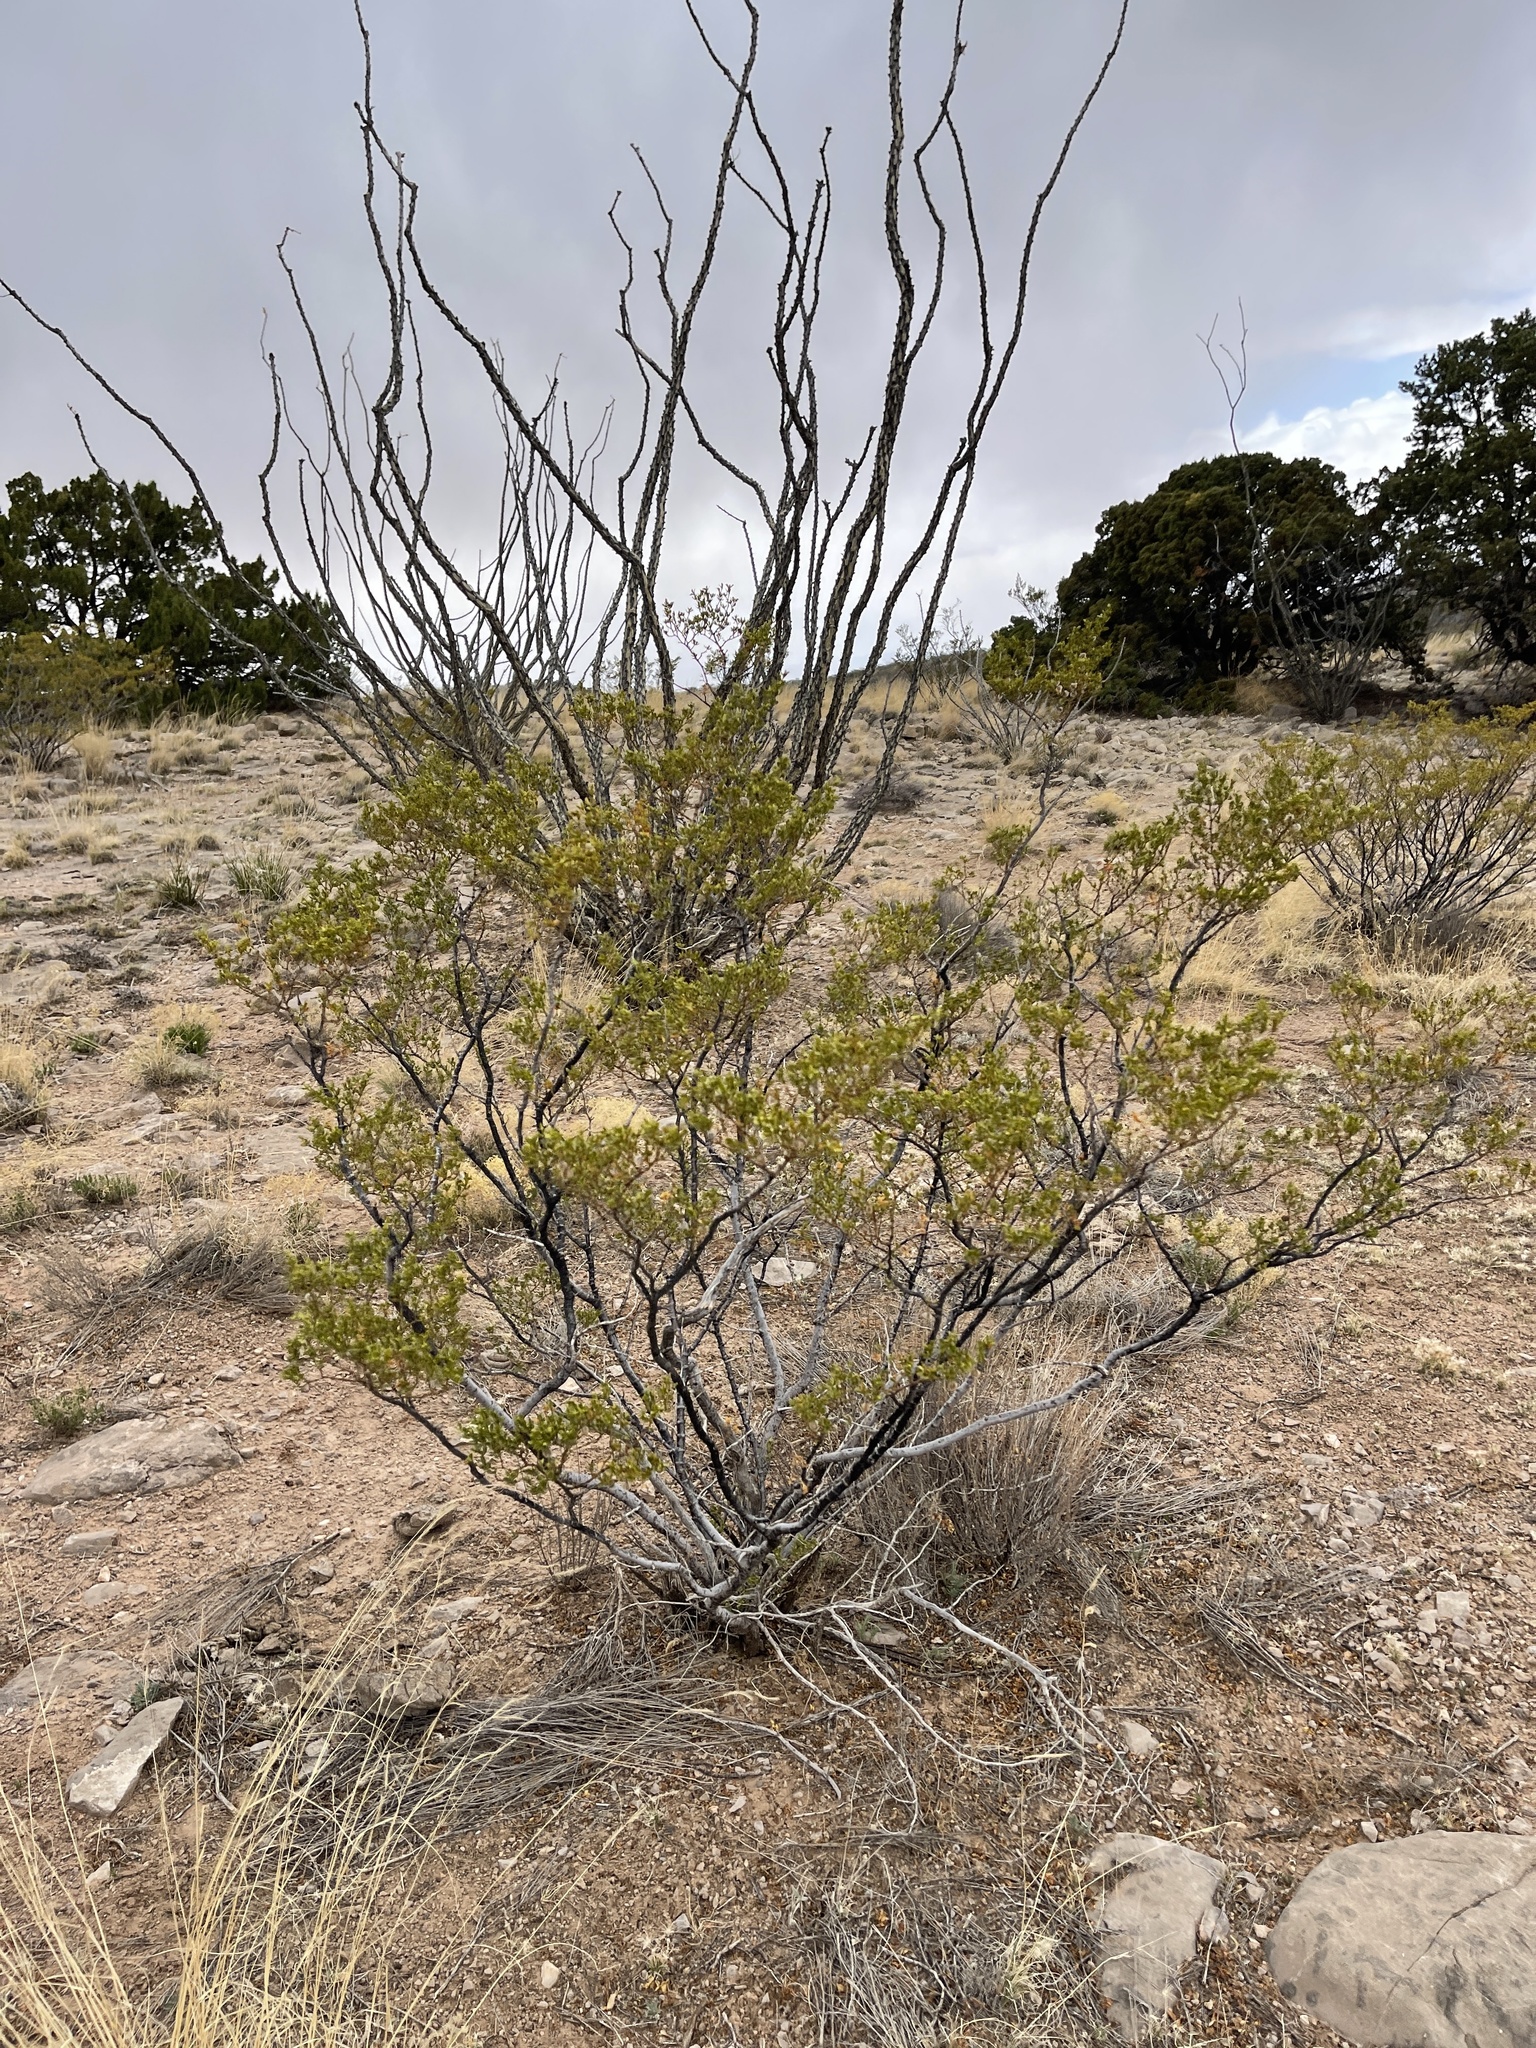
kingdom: Plantae
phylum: Tracheophyta
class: Magnoliopsida
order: Zygophyllales
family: Zygophyllaceae
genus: Larrea
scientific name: Larrea tridentata
